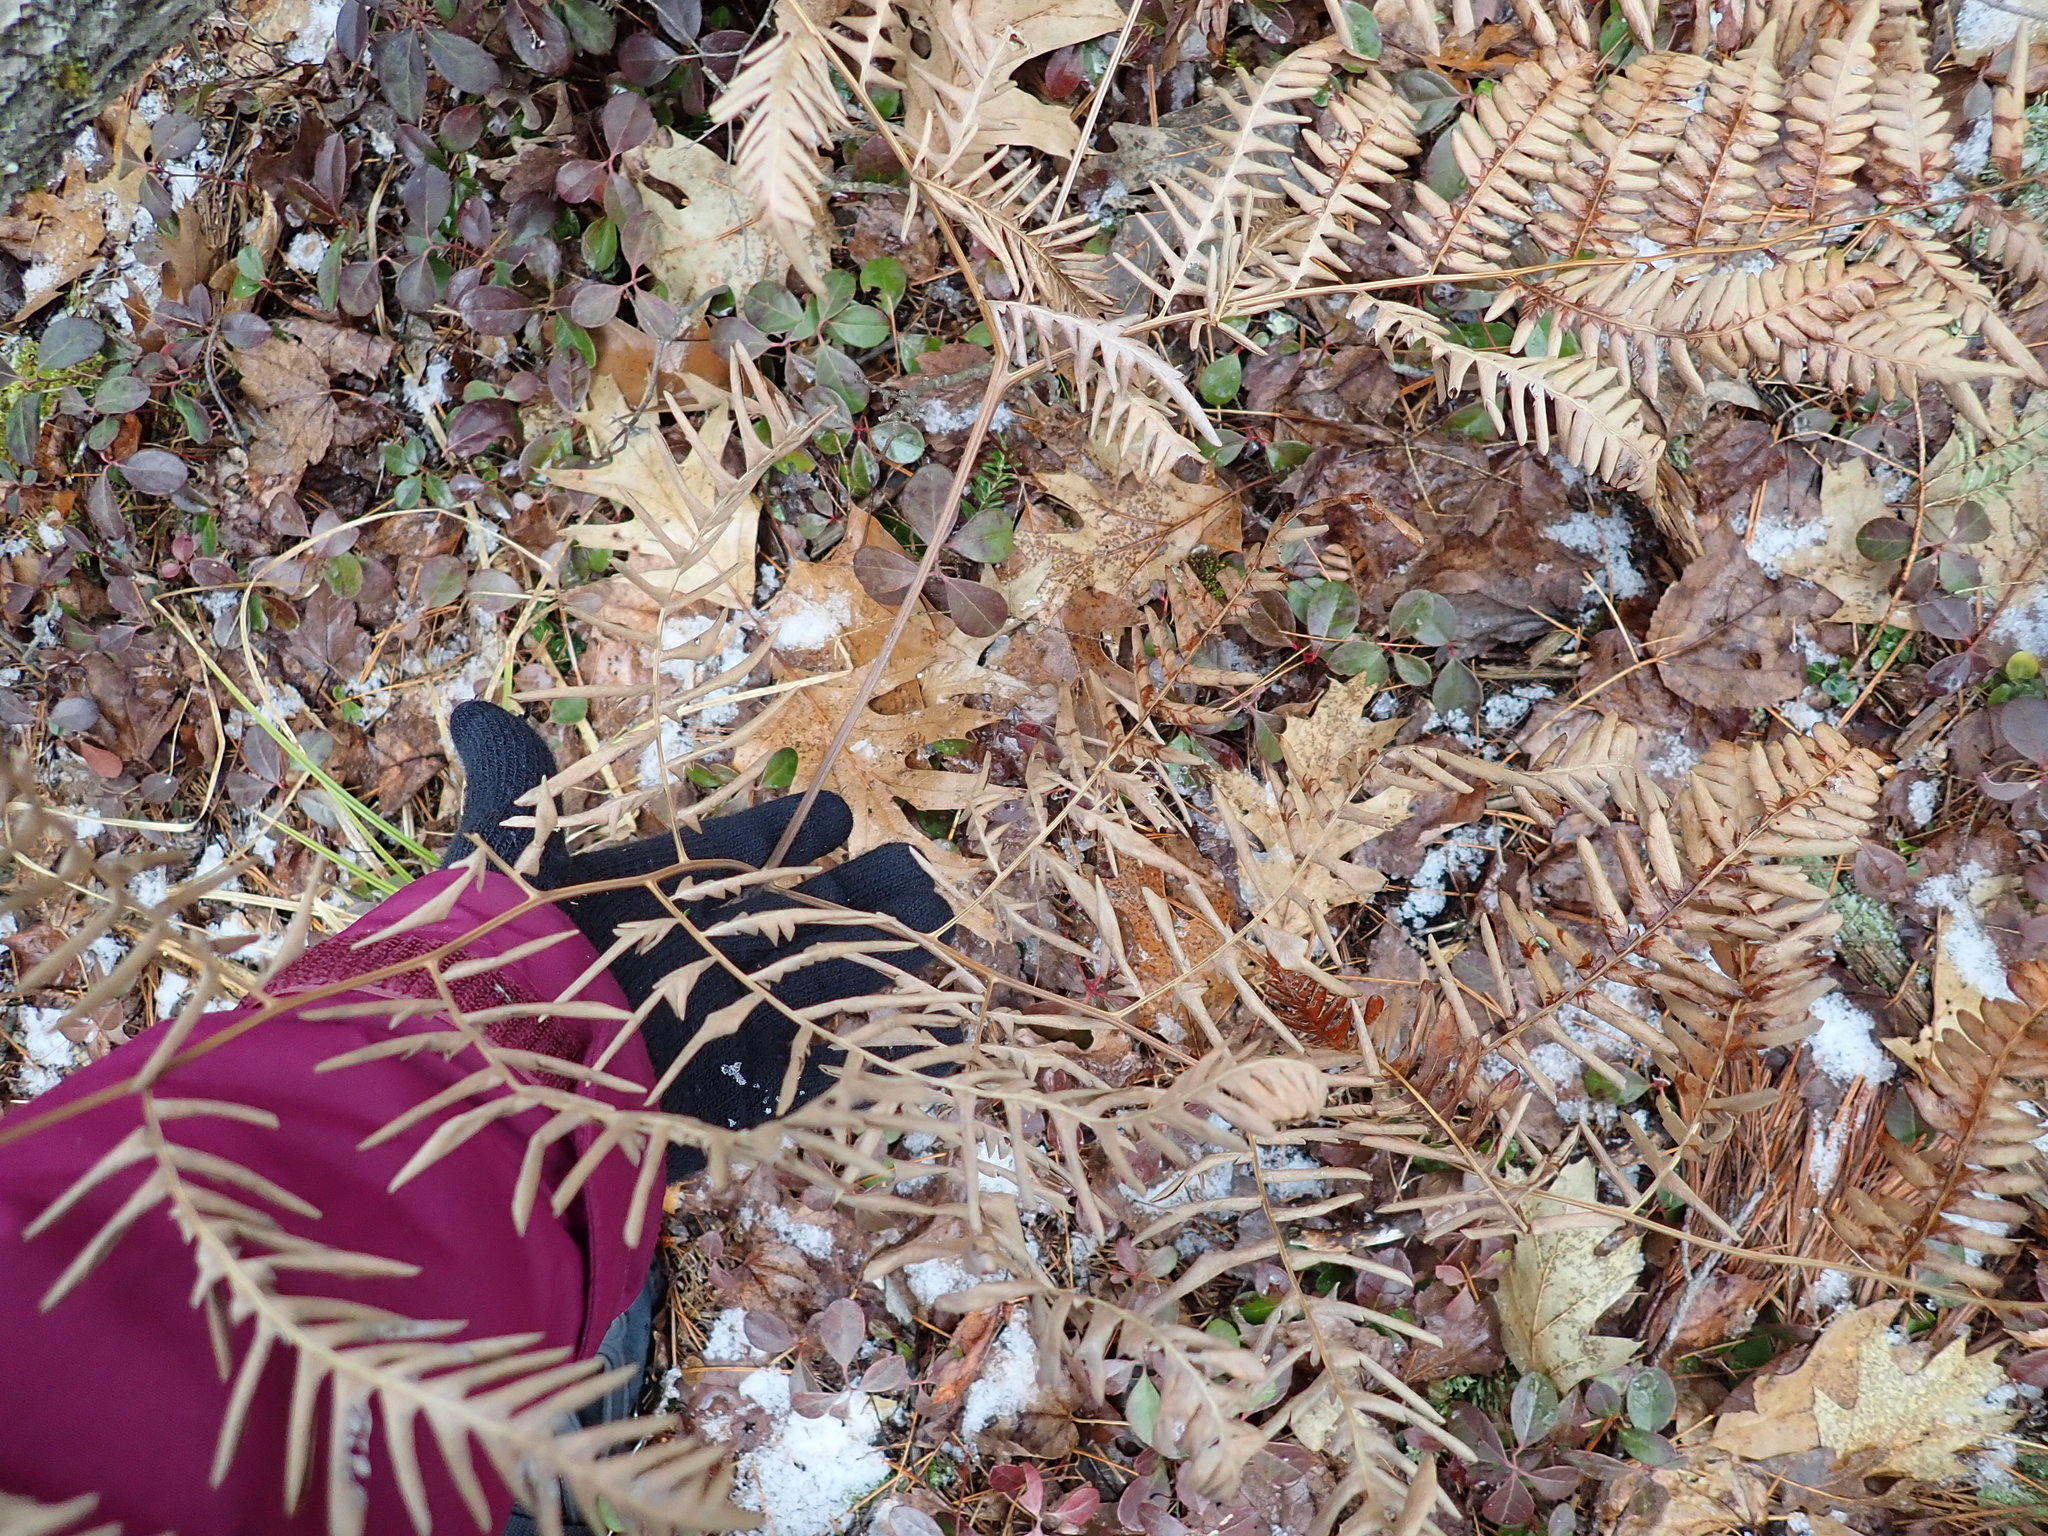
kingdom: Plantae
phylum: Tracheophyta
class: Polypodiopsida
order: Polypodiales
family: Dennstaedtiaceae
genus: Pteridium
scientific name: Pteridium aquilinum
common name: Bracken
